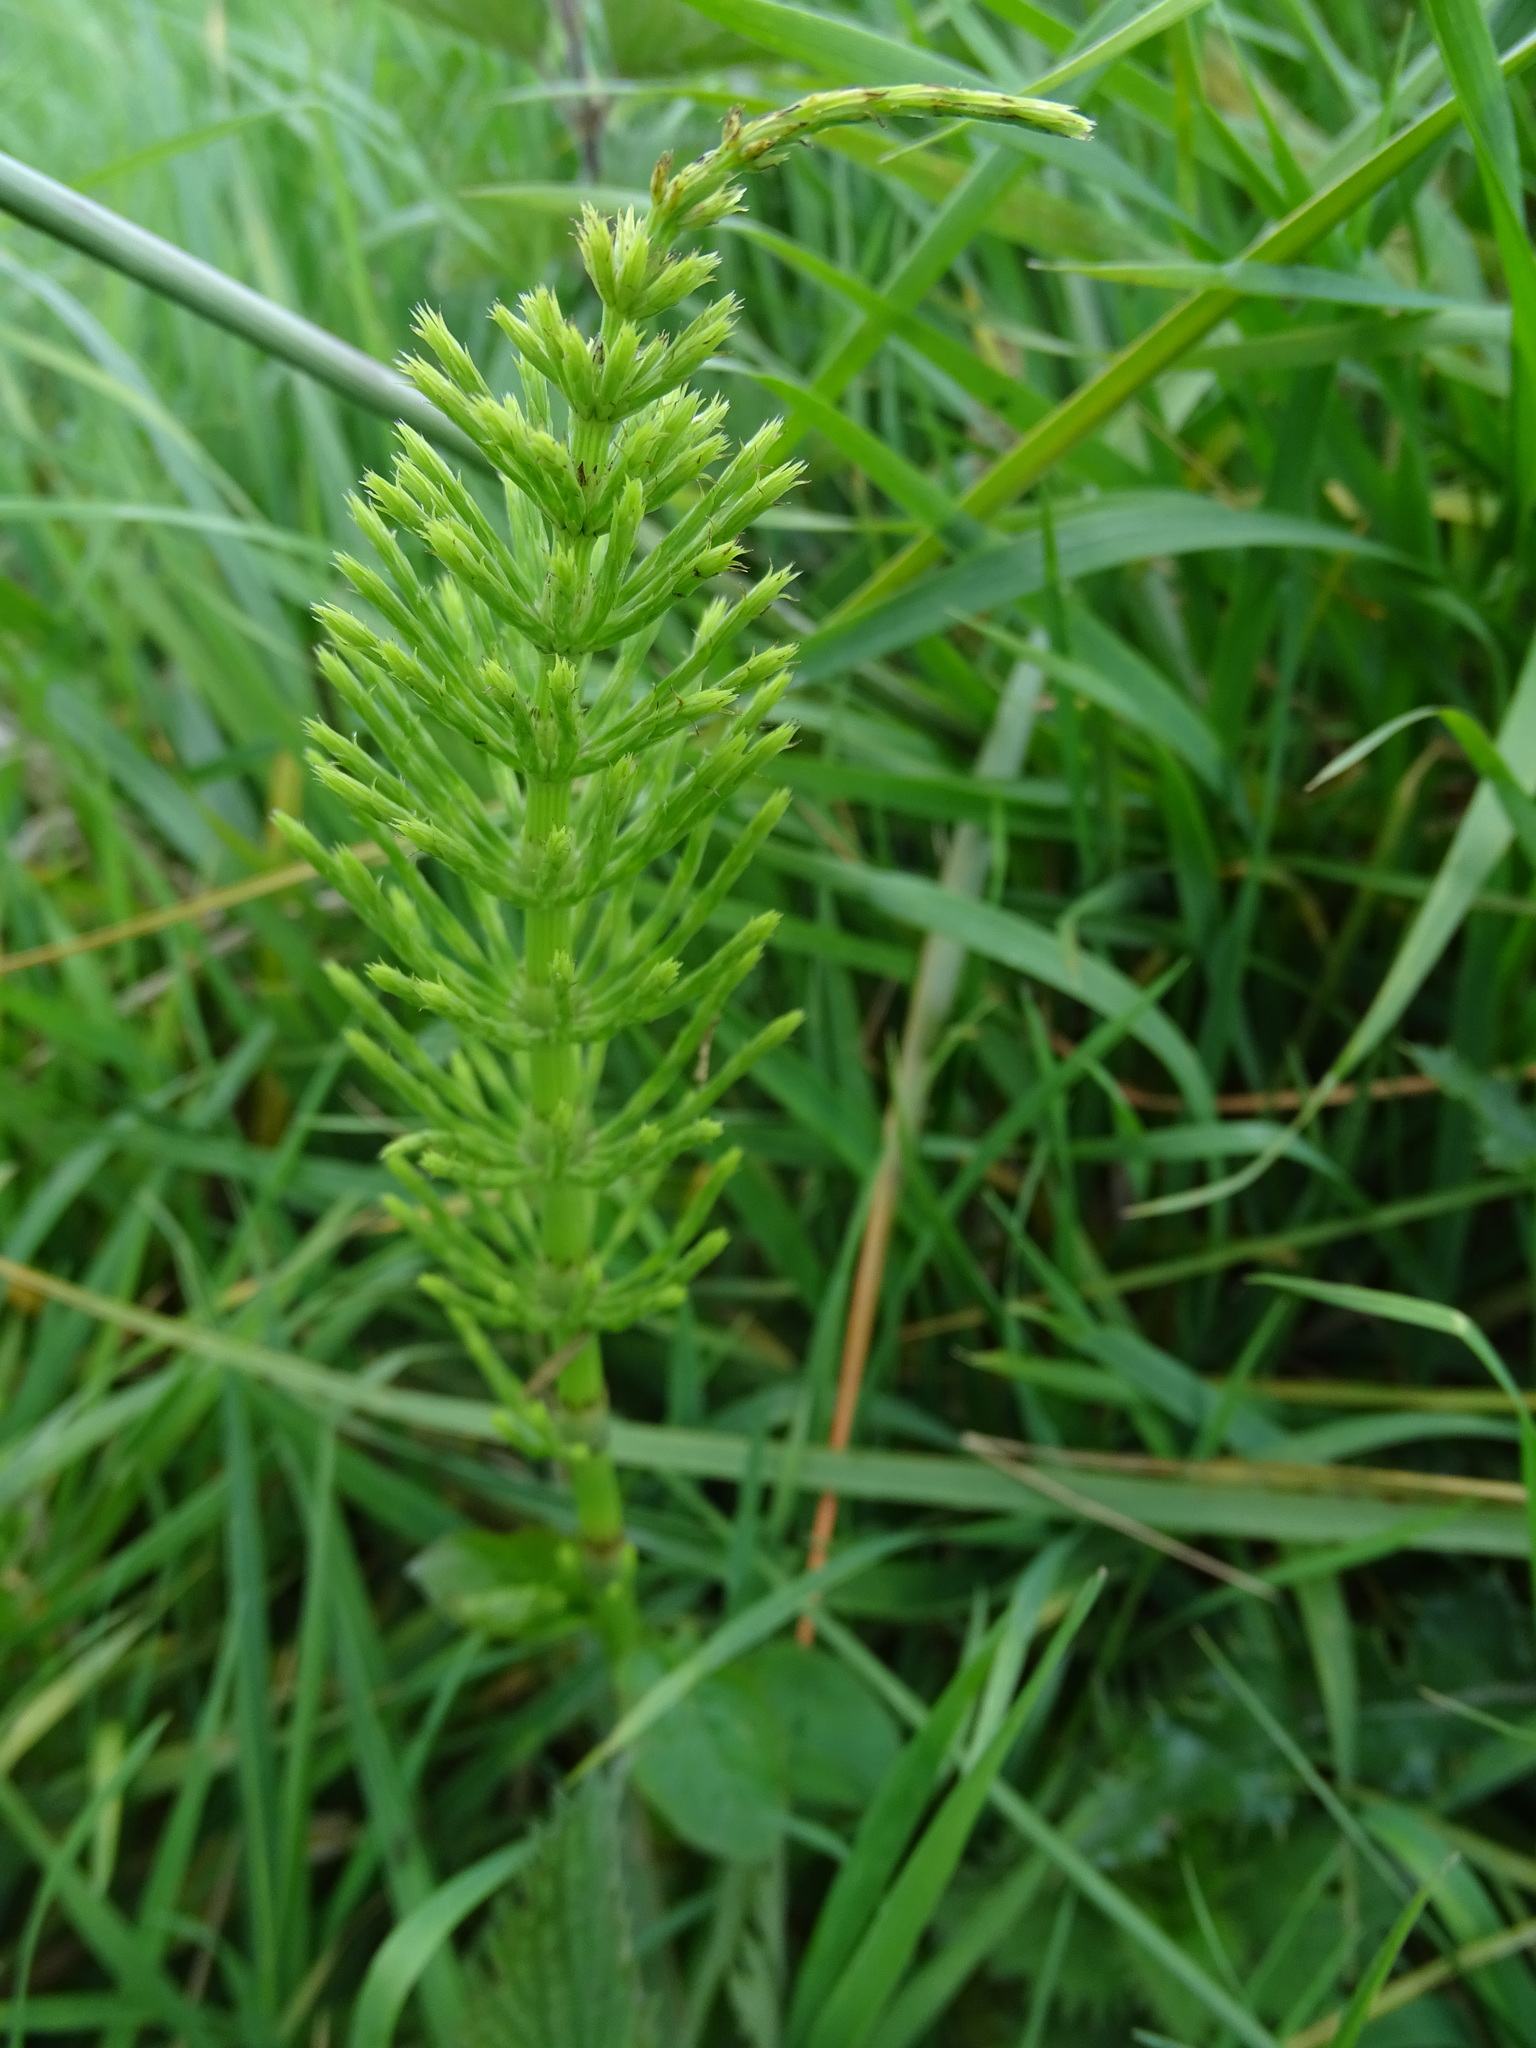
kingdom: Plantae
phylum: Tracheophyta
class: Polypodiopsida
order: Equisetales
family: Equisetaceae
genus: Equisetum
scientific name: Equisetum arvense
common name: Field horsetail
